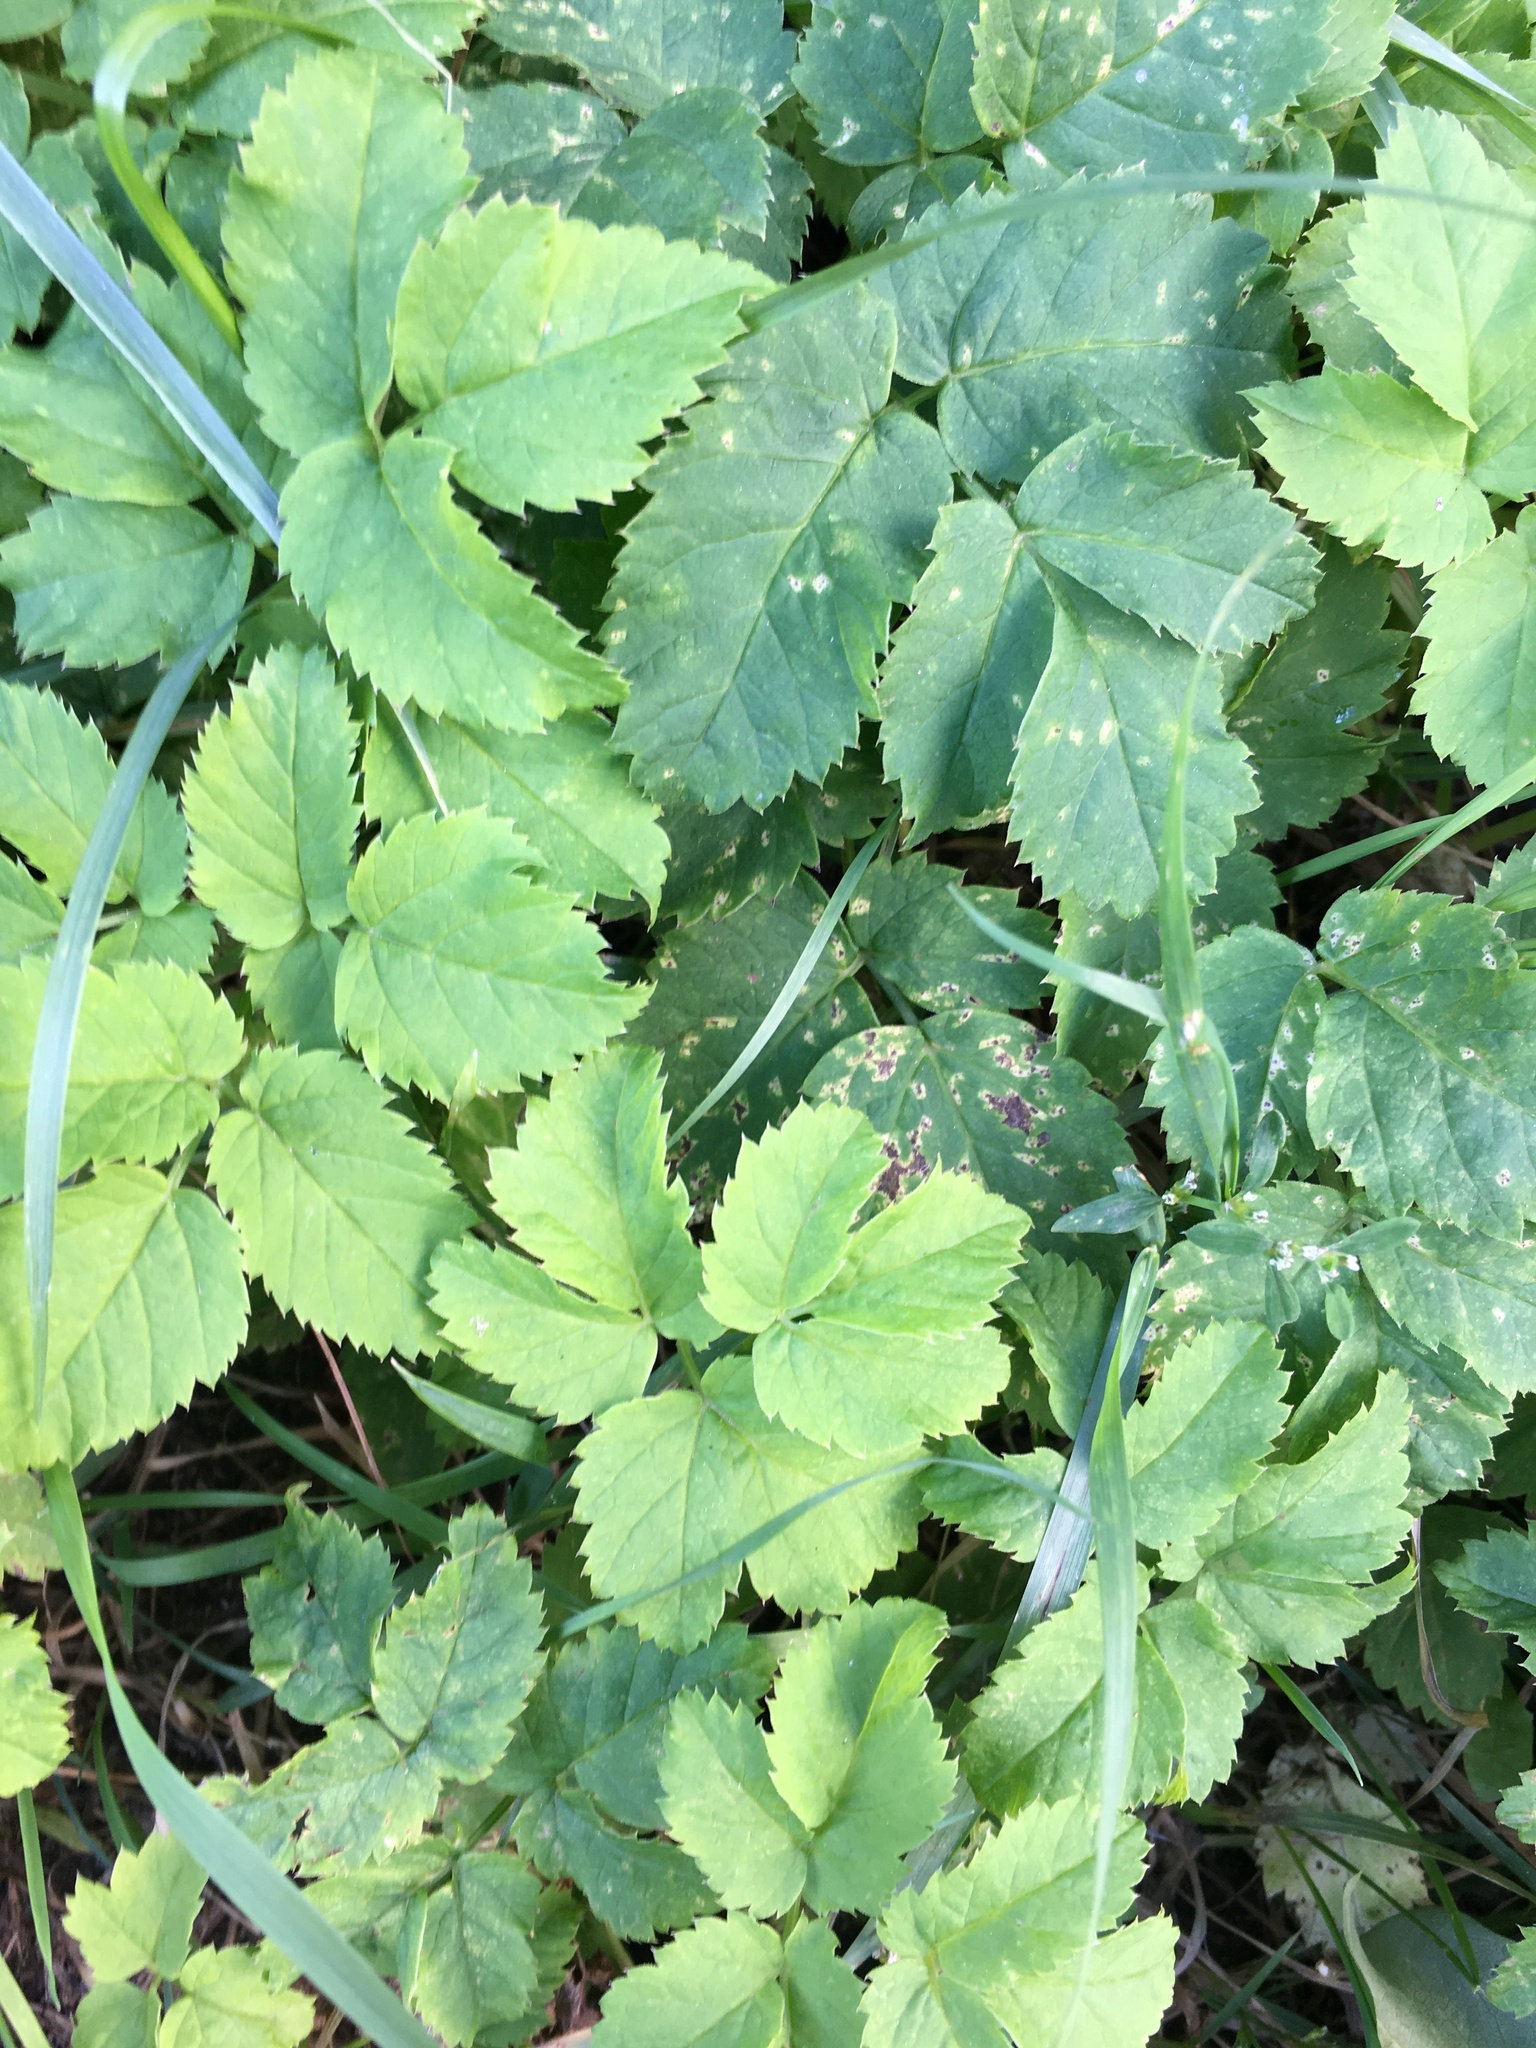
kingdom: Plantae
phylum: Tracheophyta
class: Magnoliopsida
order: Apiales
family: Apiaceae
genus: Aegopodium
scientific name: Aegopodium podagraria
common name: Ground-elder
